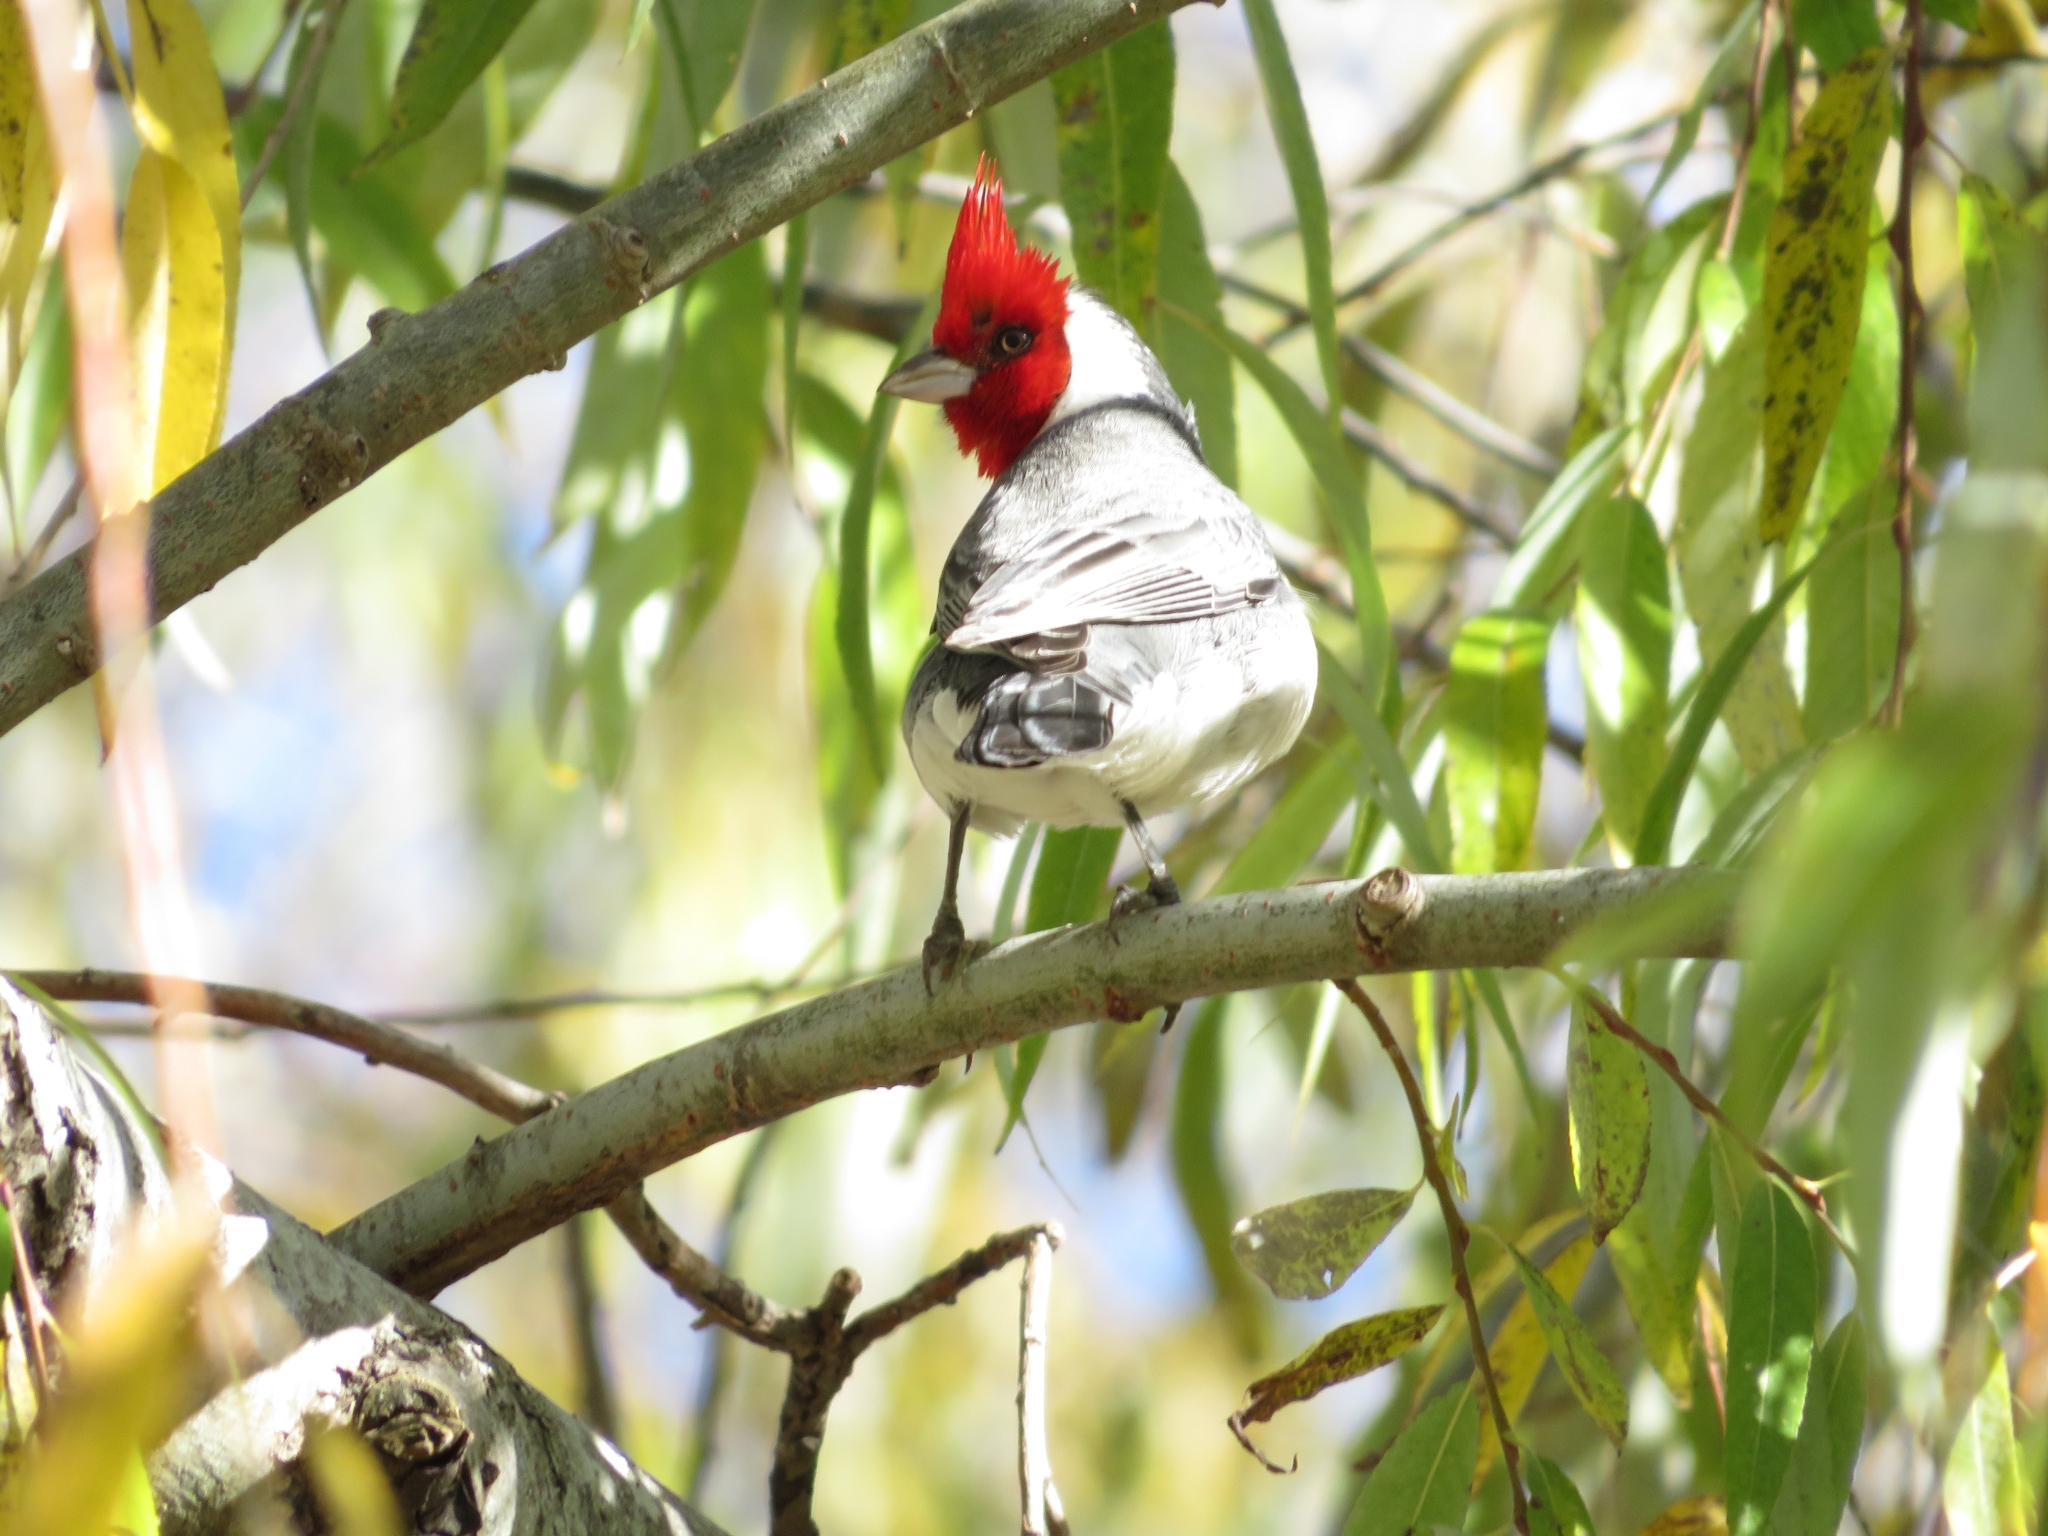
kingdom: Animalia
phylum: Chordata
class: Aves
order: Passeriformes
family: Thraupidae
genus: Paroaria
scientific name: Paroaria coronata
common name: Red-crested cardinal
